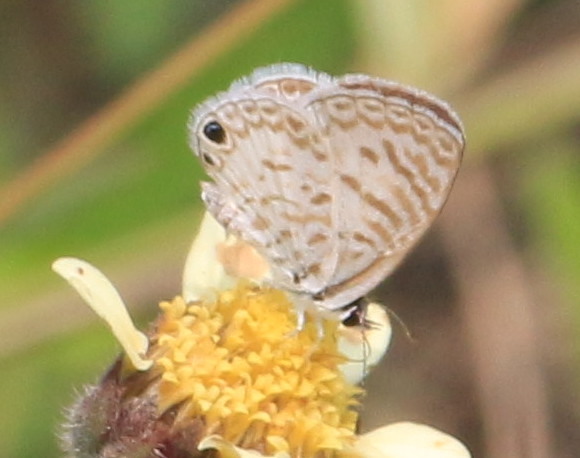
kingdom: Animalia
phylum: Arthropoda
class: Insecta
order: Lepidoptera
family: Lycaenidae
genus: Leptotes
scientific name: Leptotes theonus
